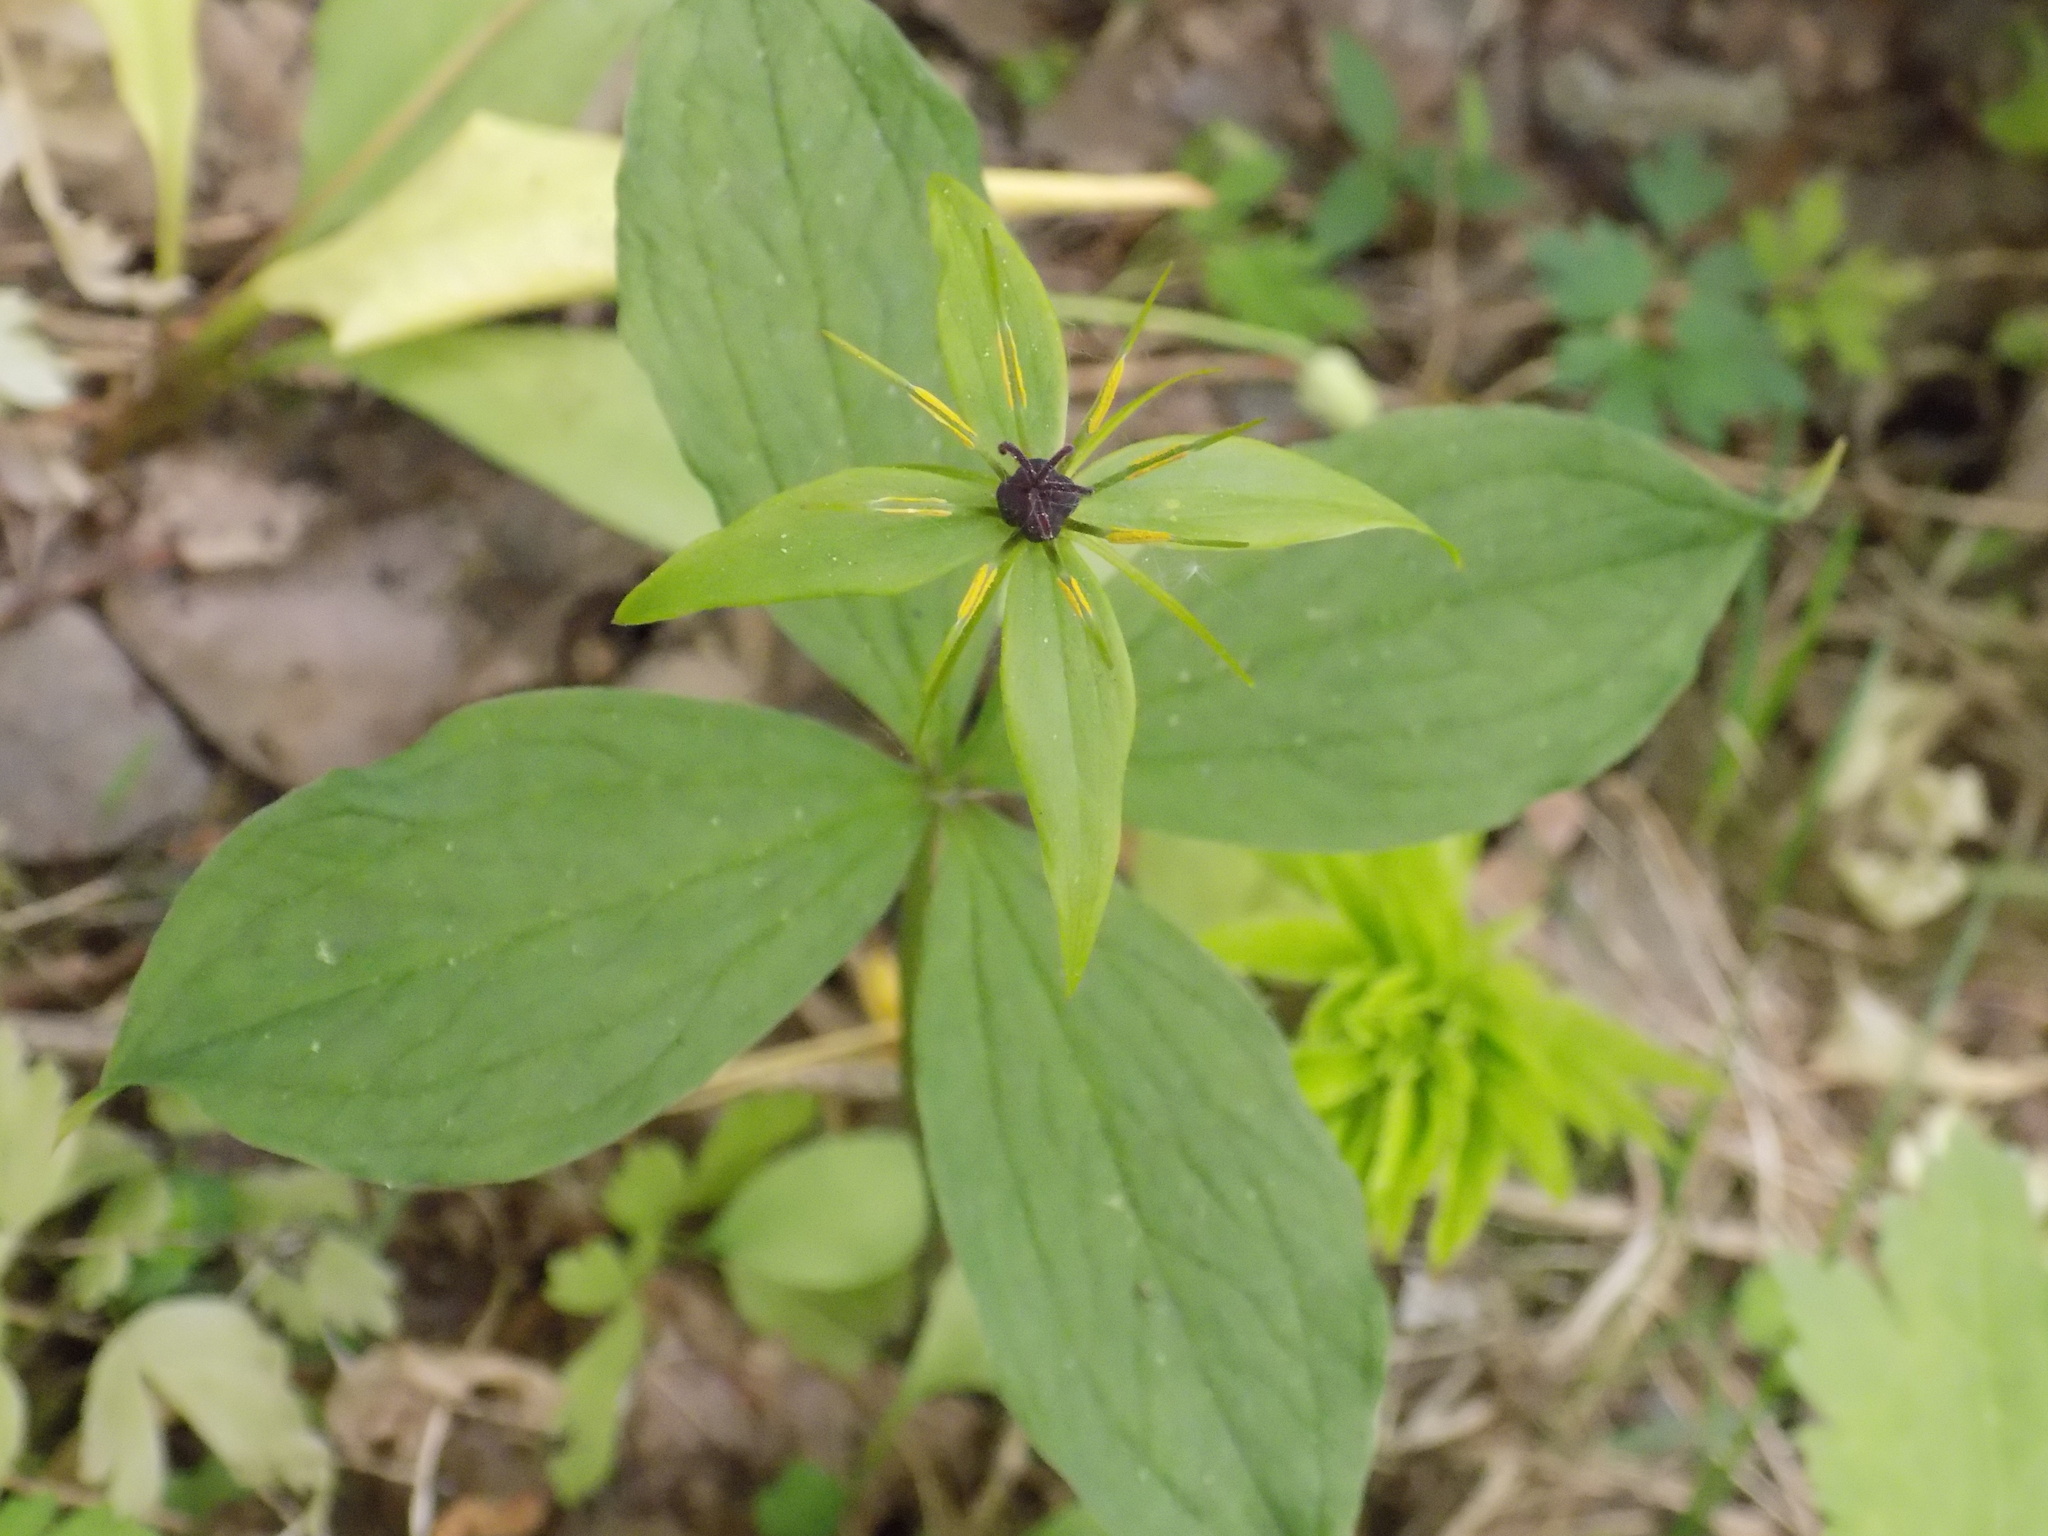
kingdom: Plantae
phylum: Tracheophyta
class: Liliopsida
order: Liliales
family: Melanthiaceae
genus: Paris
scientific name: Paris quadrifolia
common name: Herb-paris
